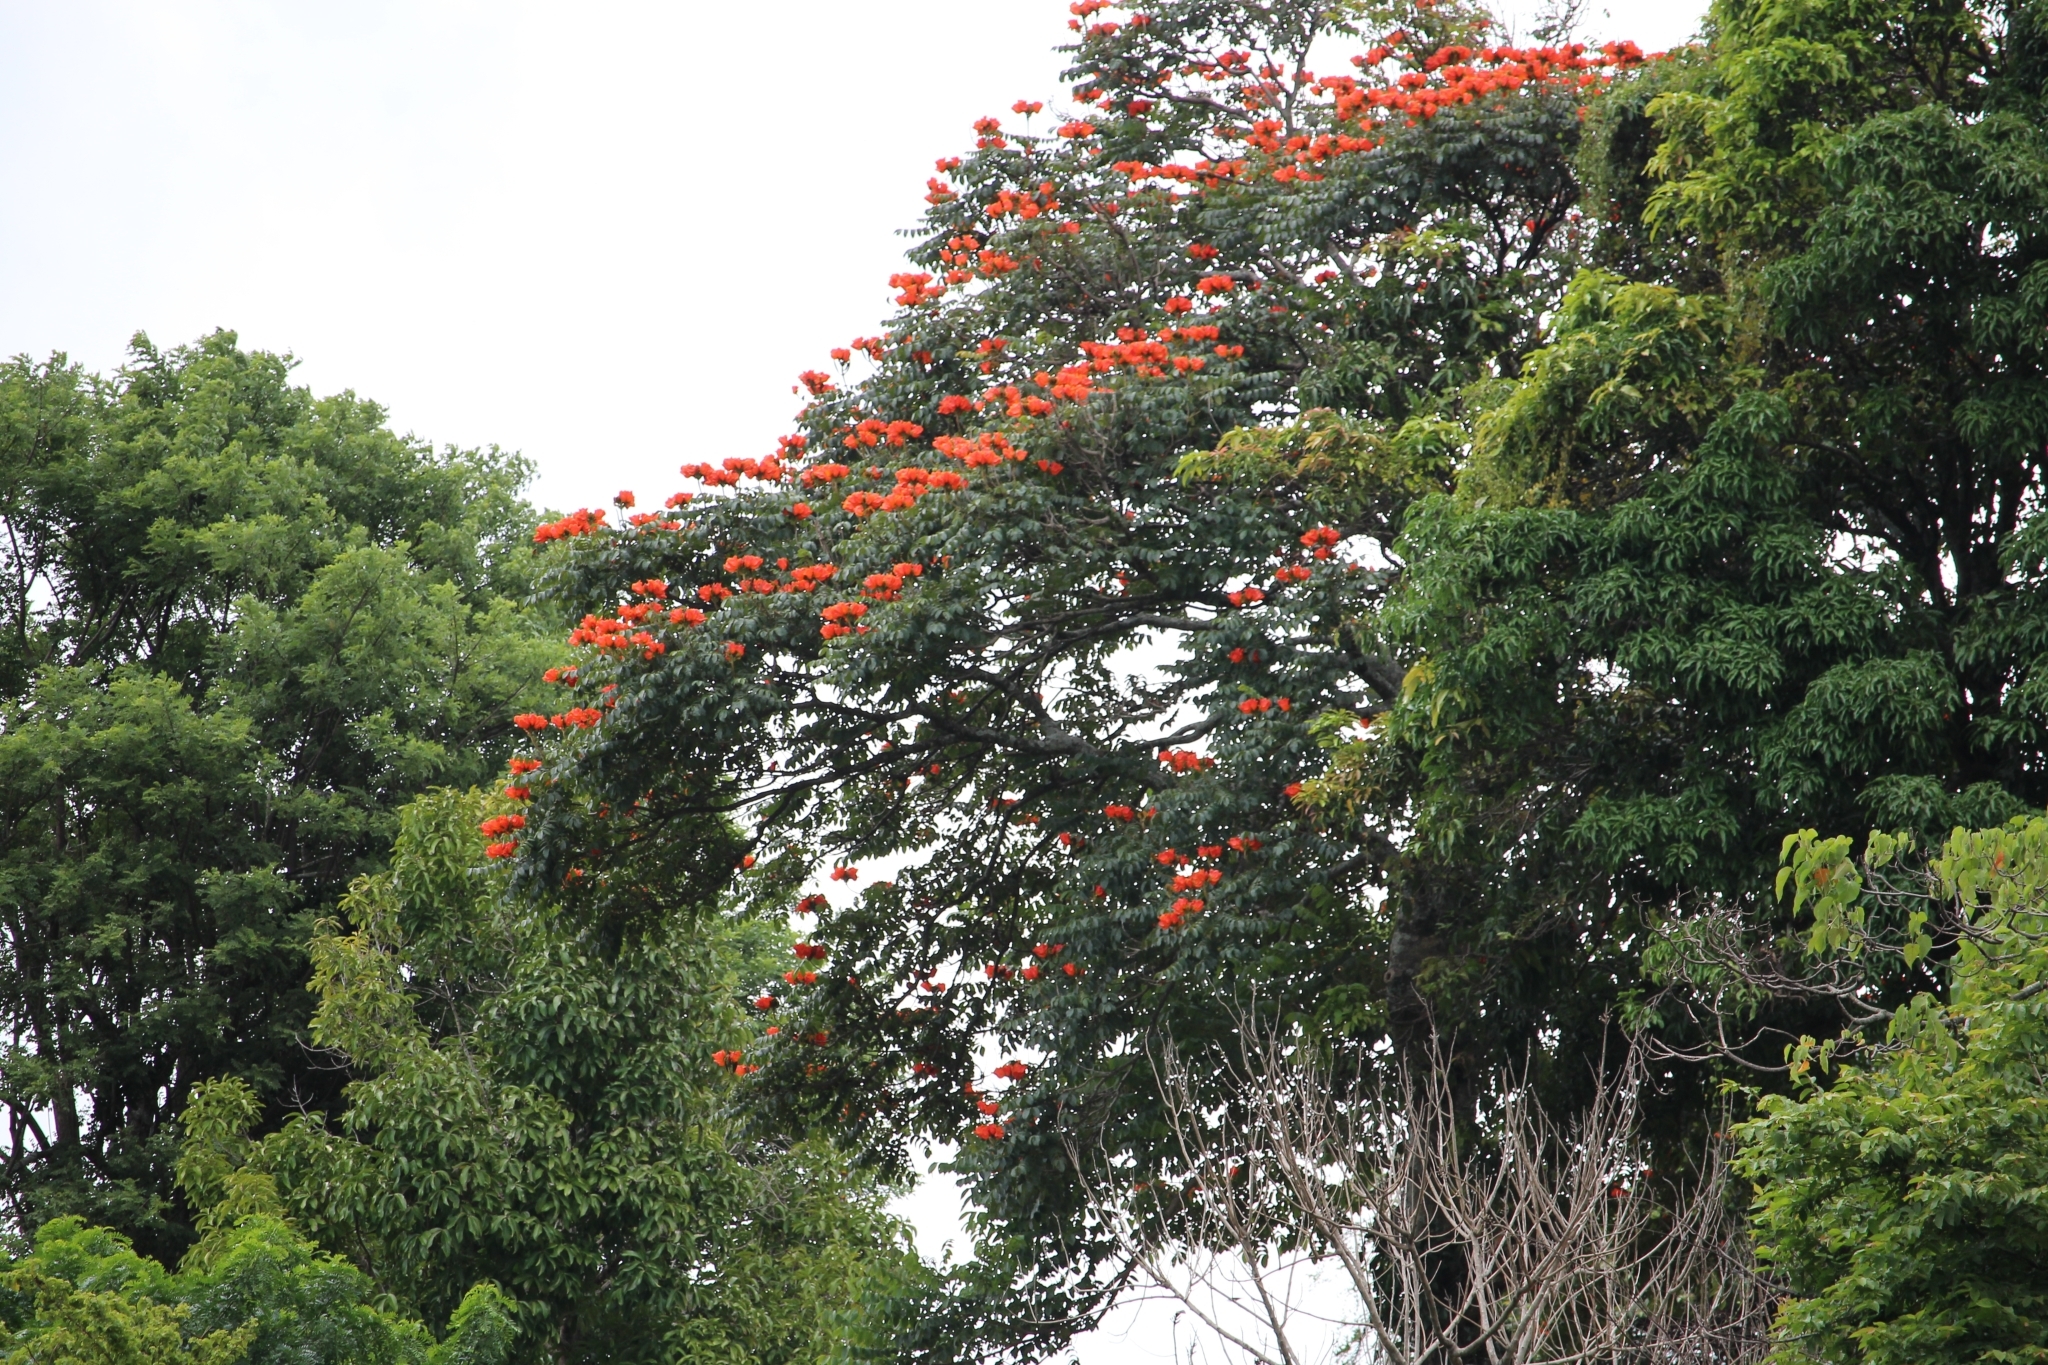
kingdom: Plantae
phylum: Tracheophyta
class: Magnoliopsida
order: Lamiales
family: Bignoniaceae
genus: Spathodea
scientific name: Spathodea campanulata
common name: African tuliptree
